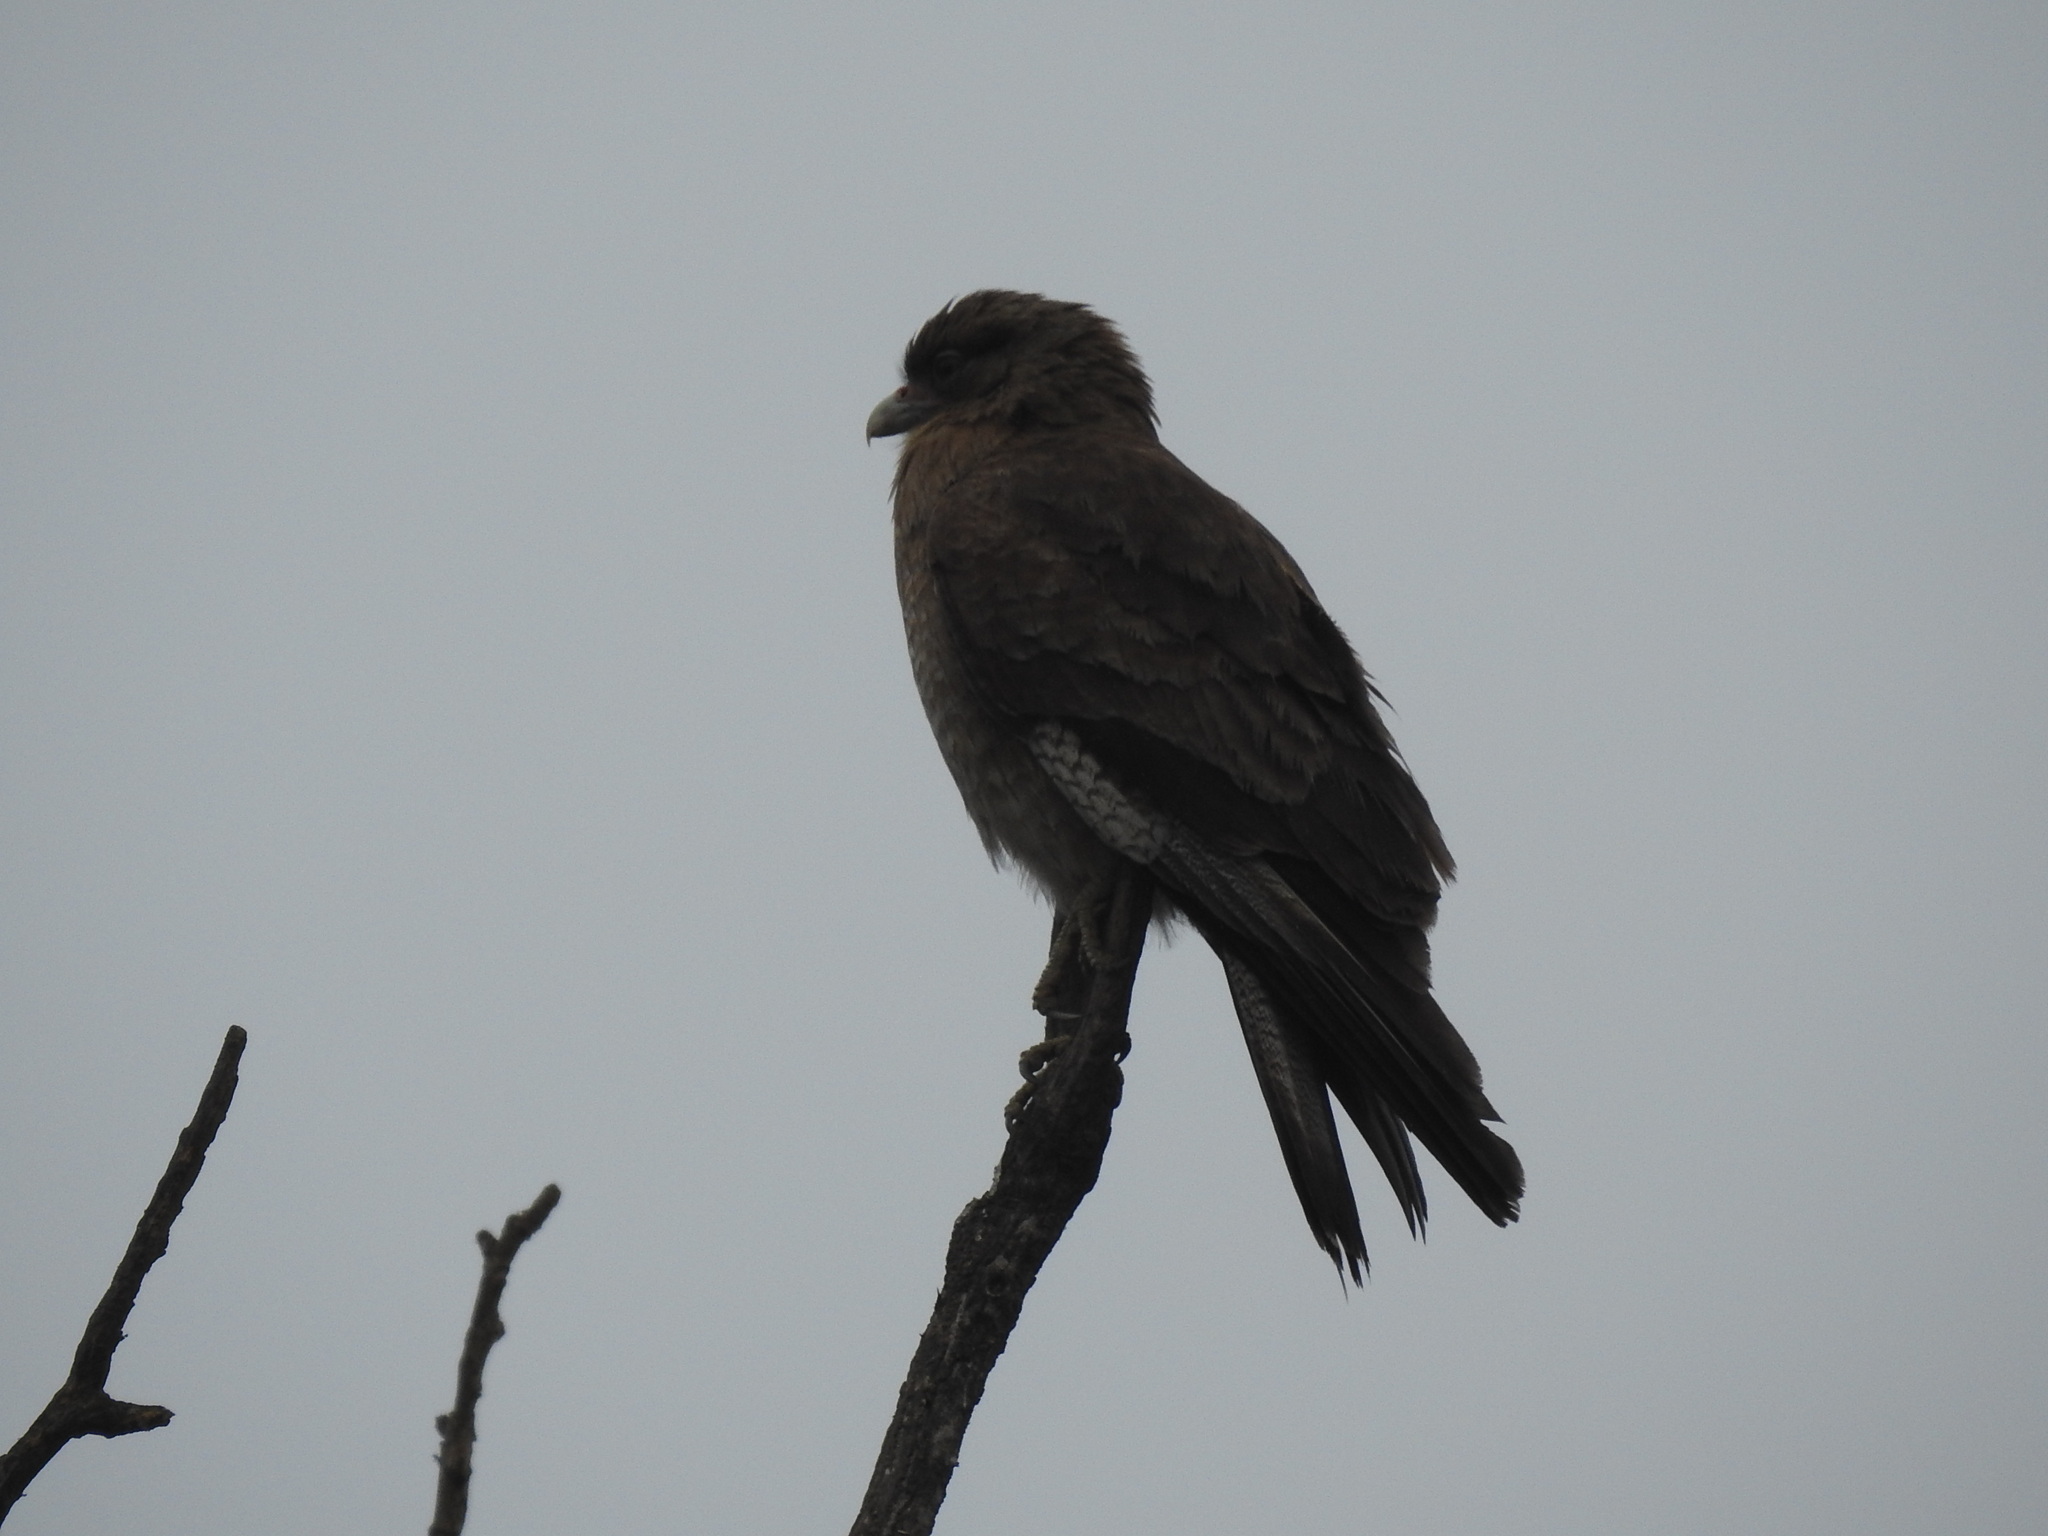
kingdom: Animalia
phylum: Chordata
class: Aves
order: Falconiformes
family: Falconidae
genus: Daptrius
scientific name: Daptrius
